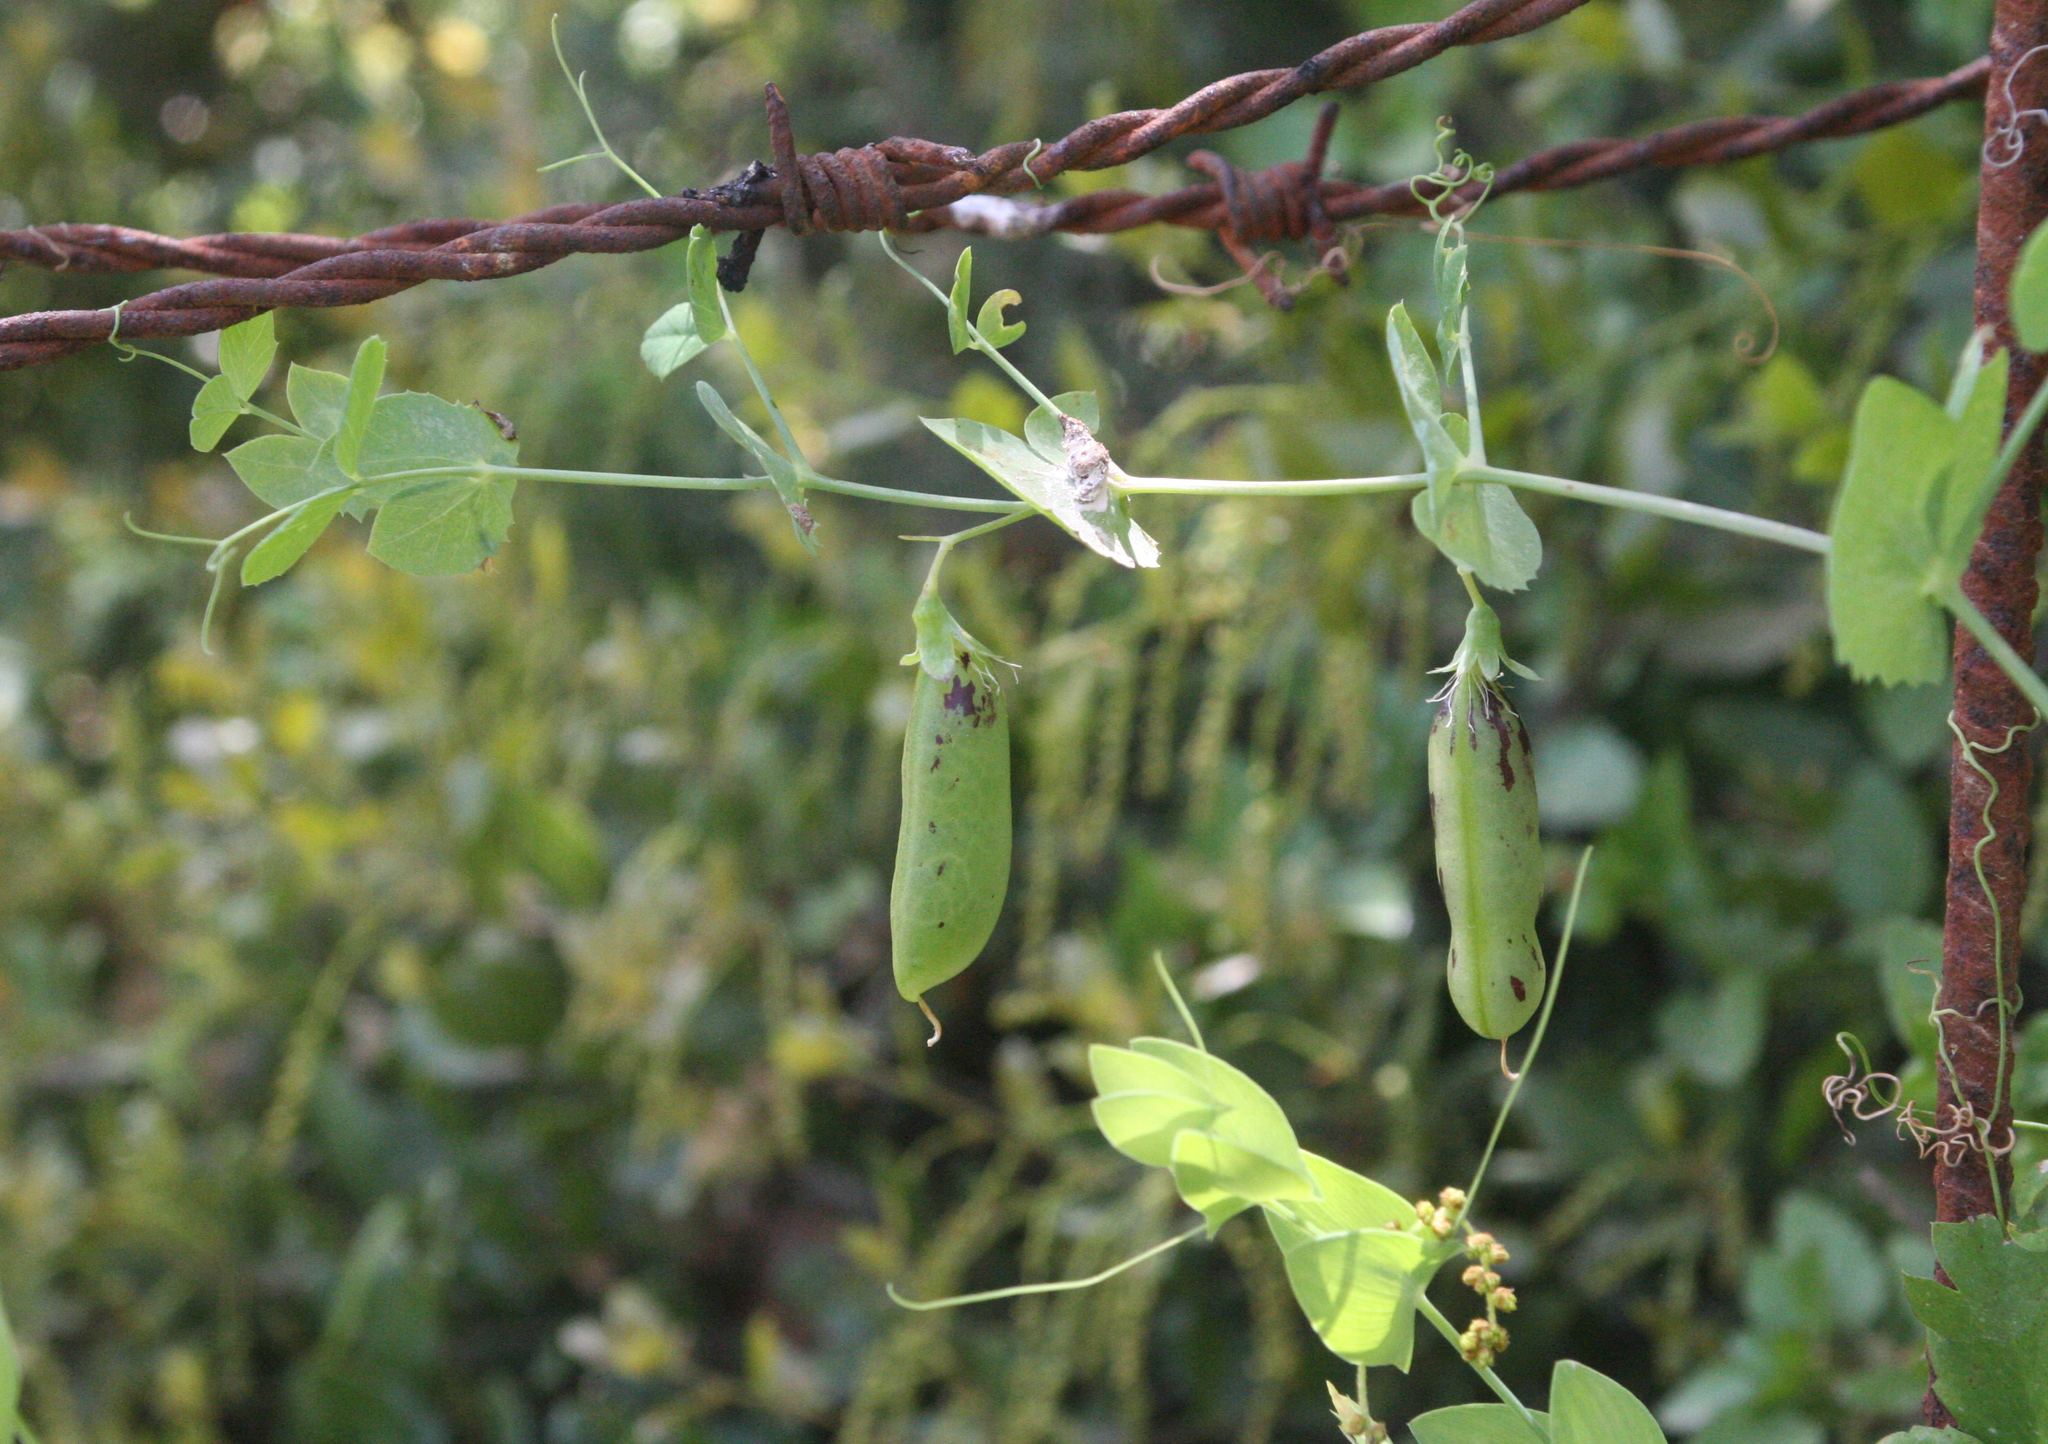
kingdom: Plantae
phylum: Tracheophyta
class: Magnoliopsida
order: Fabales
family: Fabaceae
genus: Lathyrus
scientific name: Lathyrus fulvus
